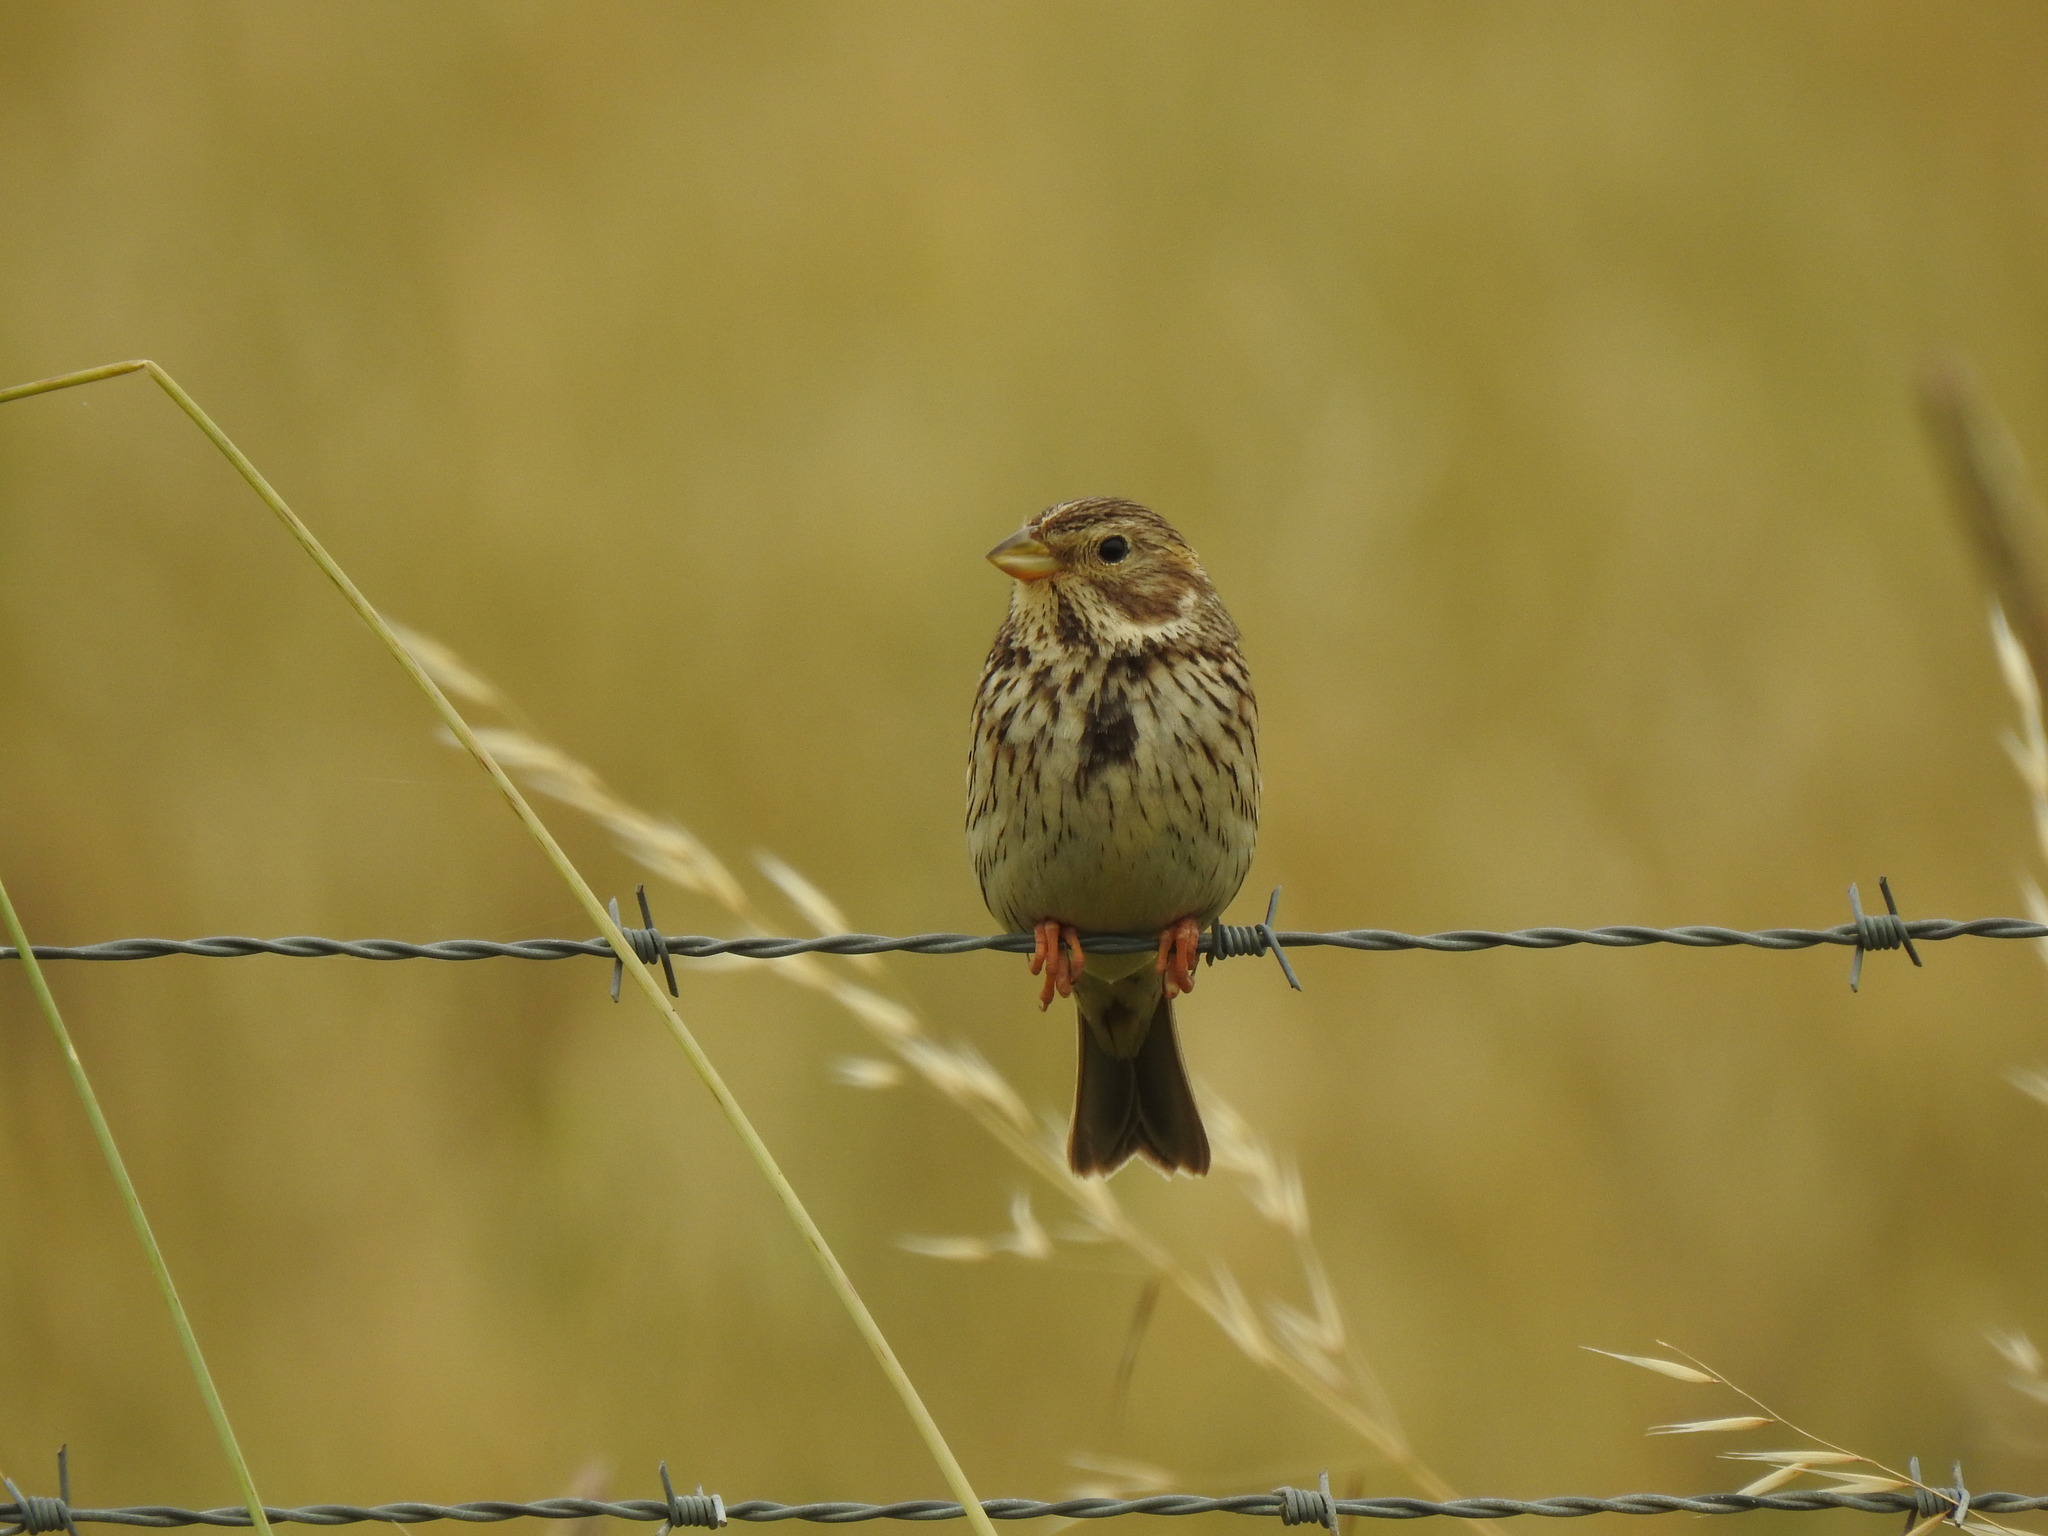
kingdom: Animalia
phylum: Chordata
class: Aves
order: Passeriformes
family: Emberizidae
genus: Emberiza
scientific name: Emberiza calandra
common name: Corn bunting
